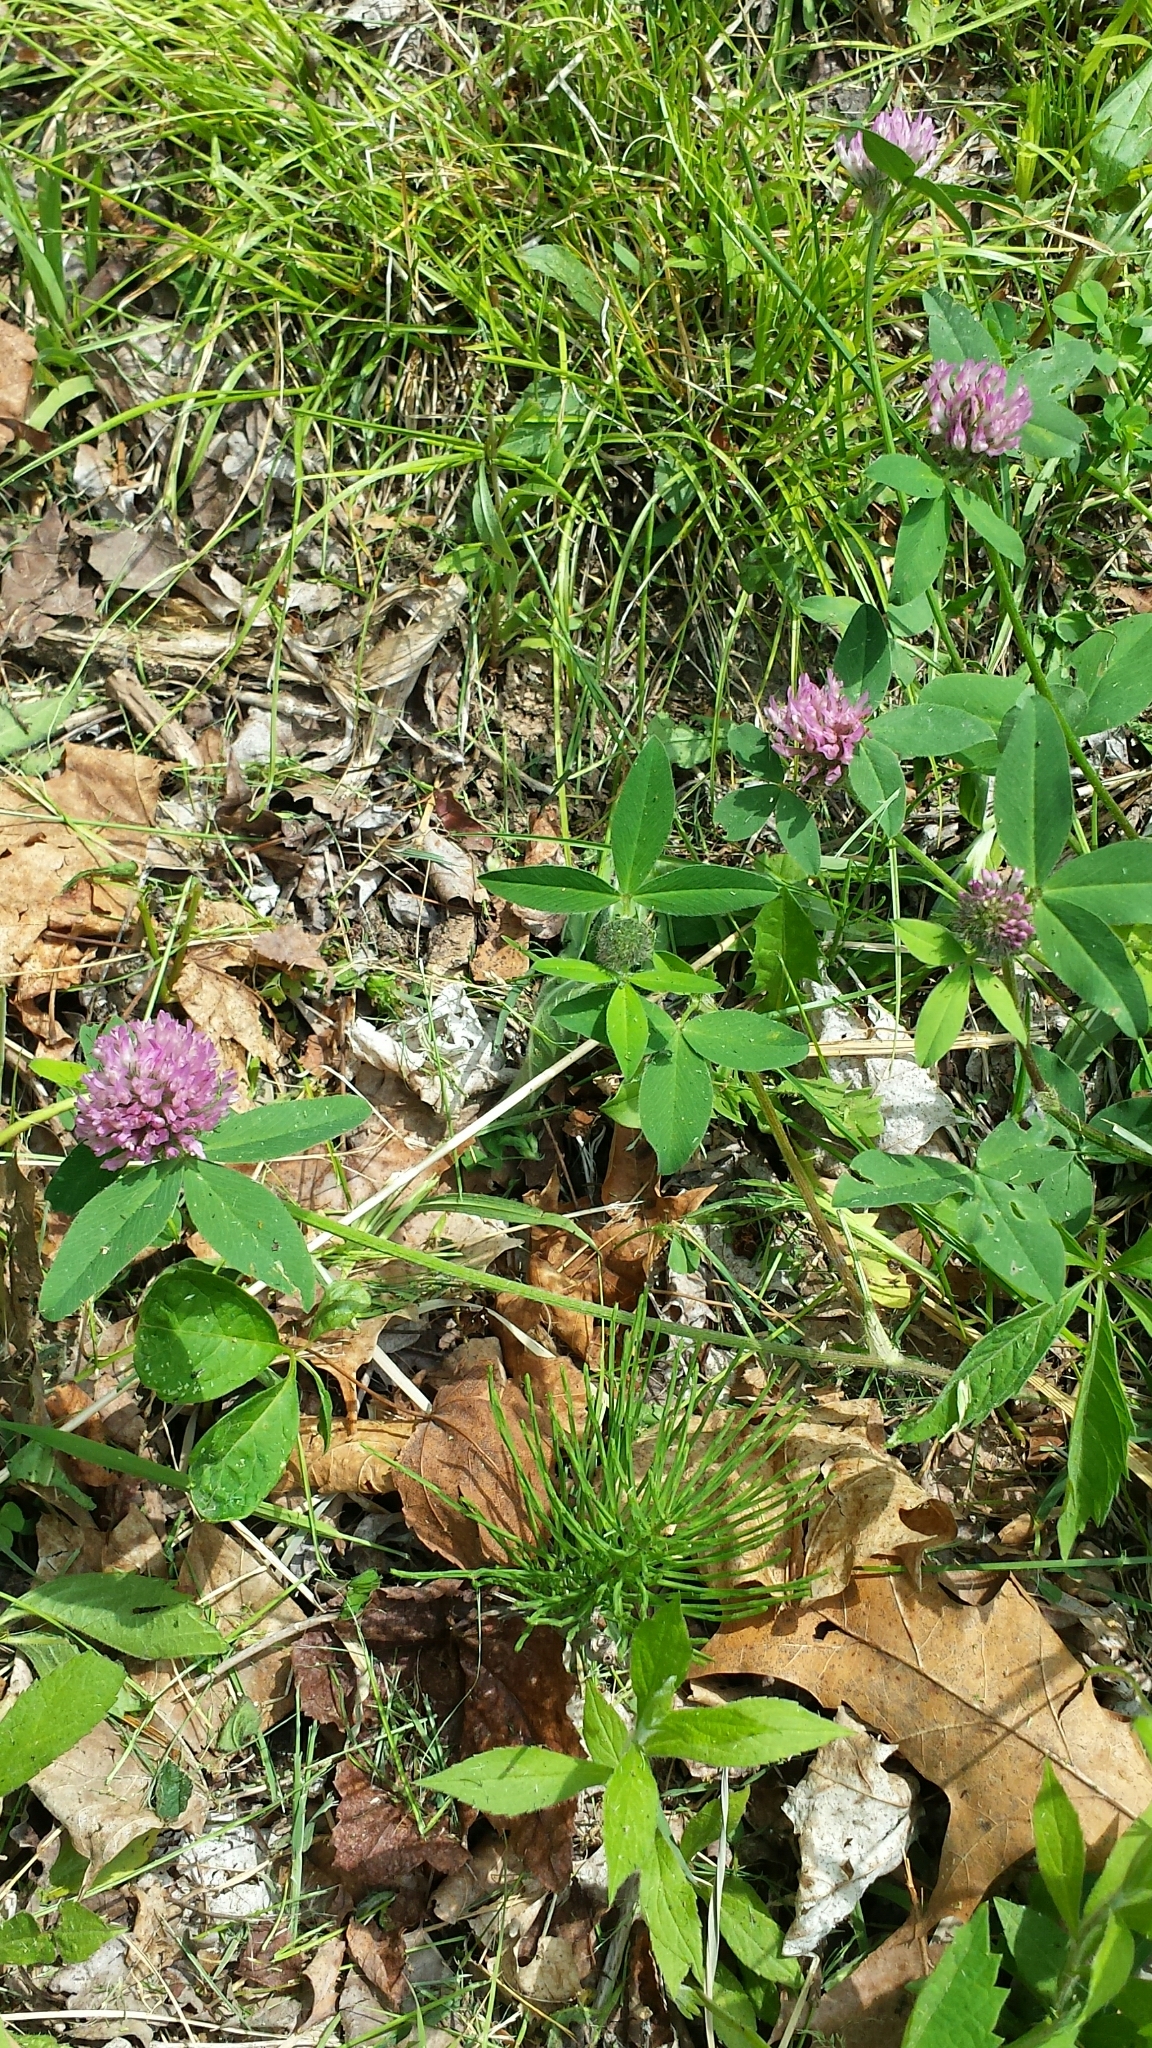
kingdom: Plantae
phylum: Tracheophyta
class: Magnoliopsida
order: Fabales
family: Fabaceae
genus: Trifolium
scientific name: Trifolium pratense
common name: Red clover
